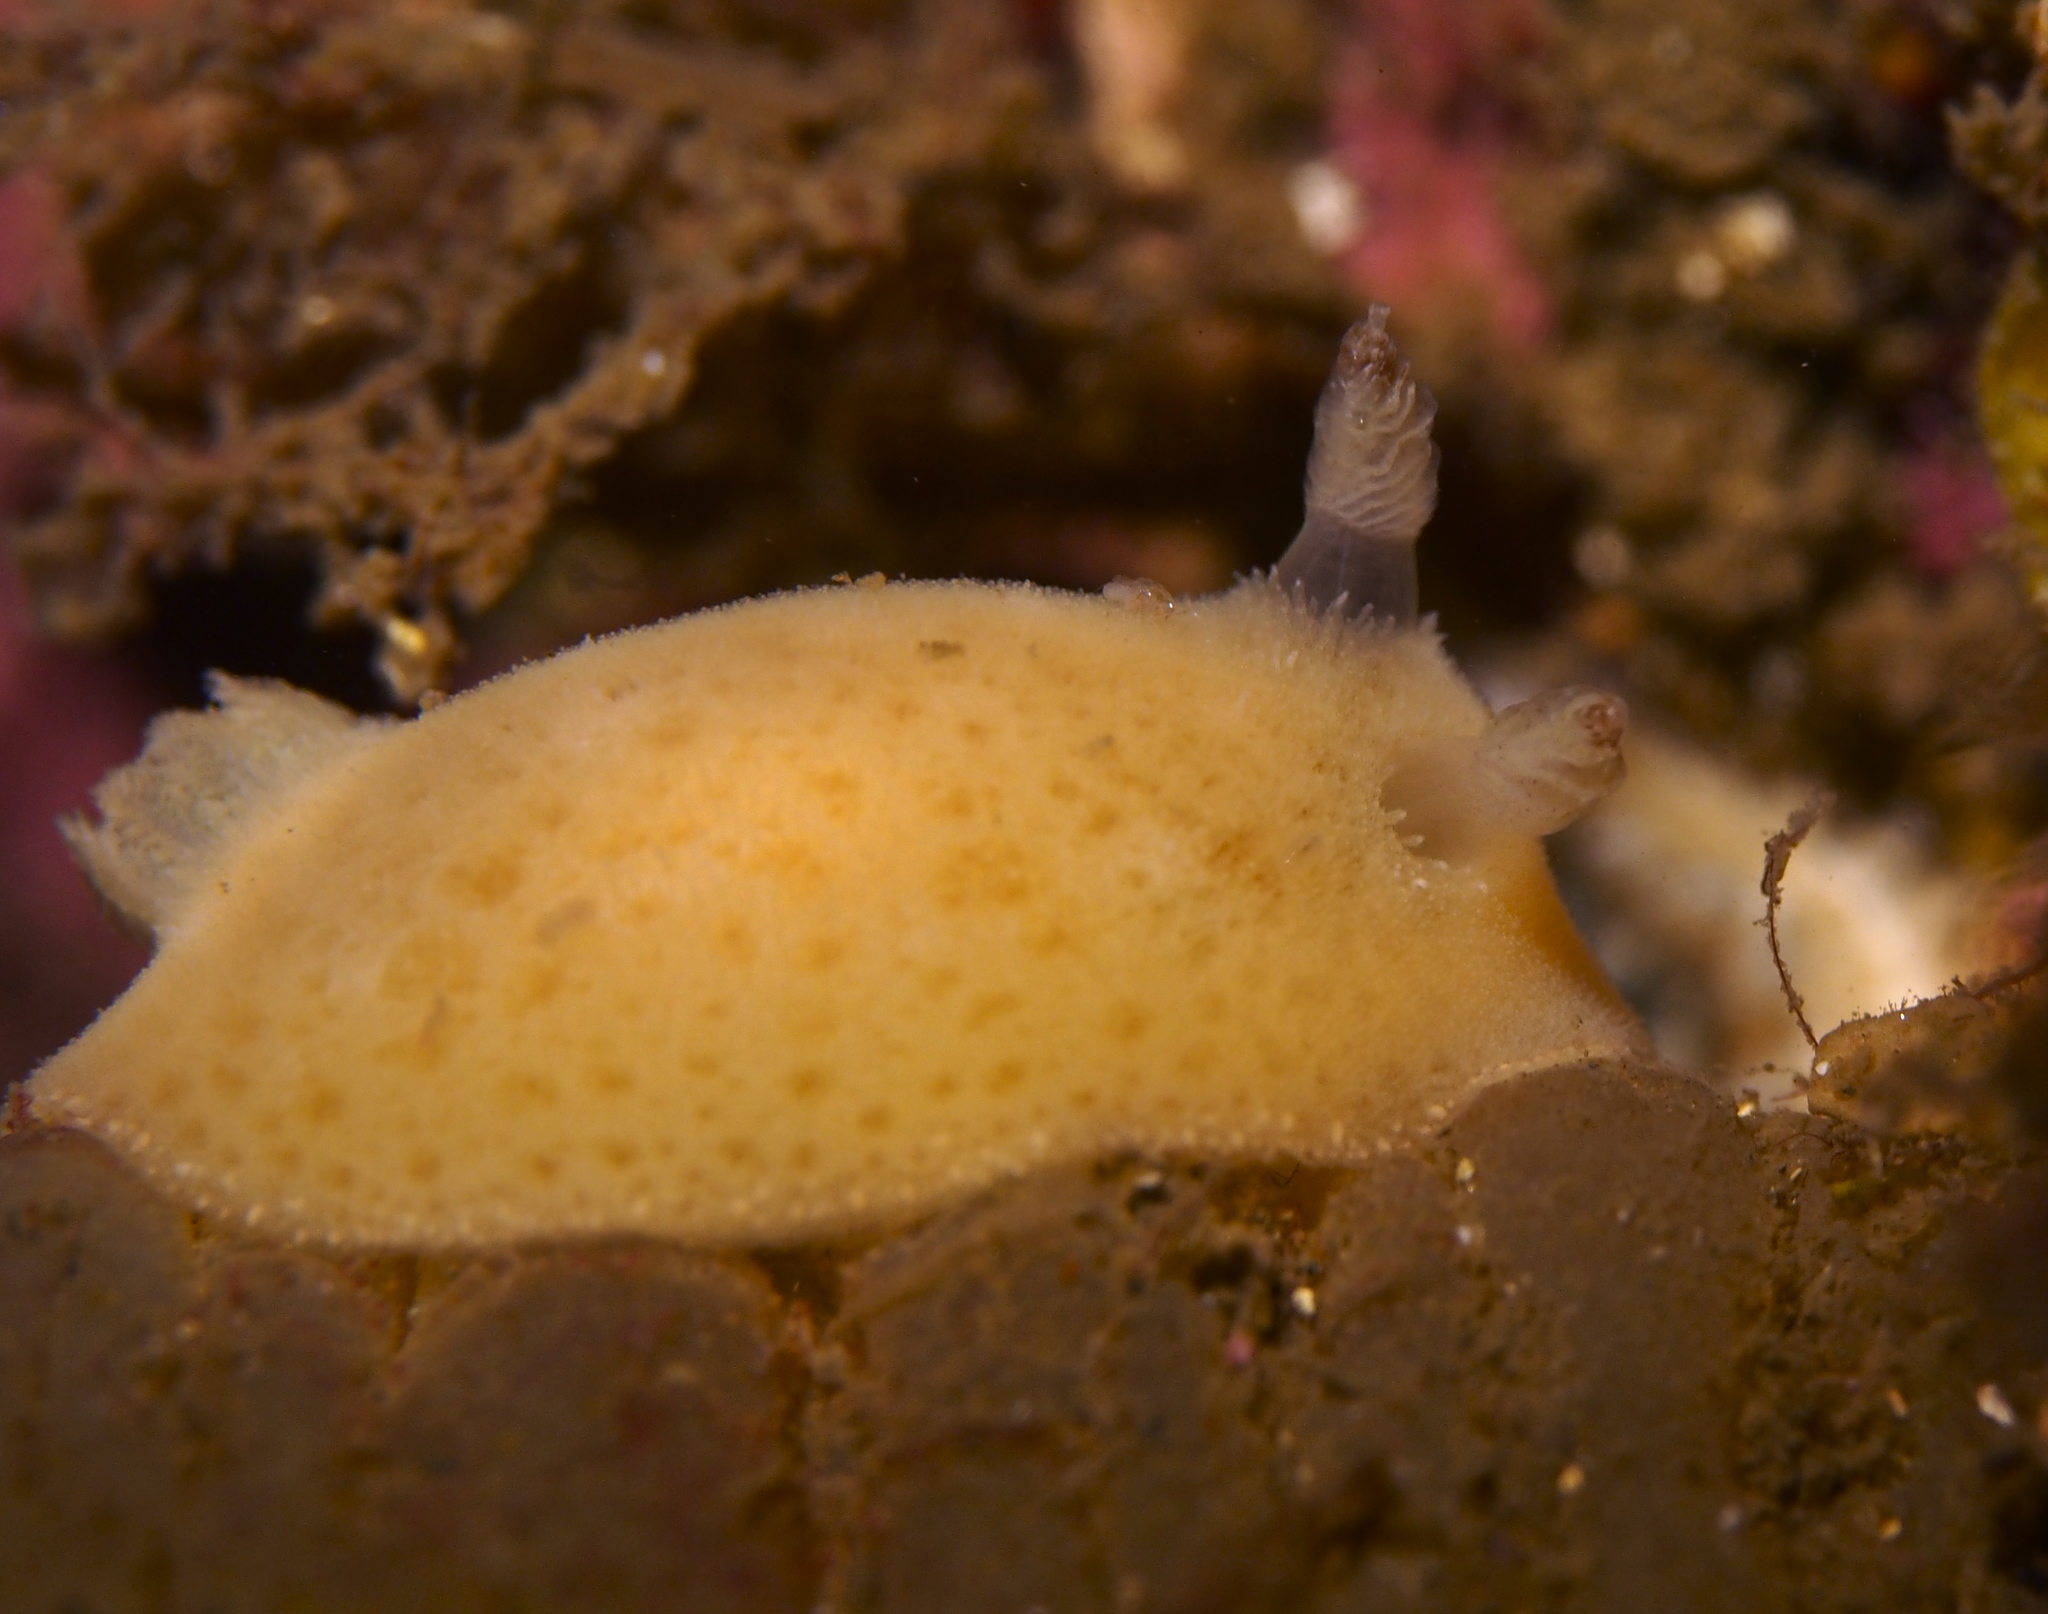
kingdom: Animalia
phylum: Mollusca
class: Gastropoda
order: Nudibranchia
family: Discodorididae
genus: Jorunna
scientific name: Jorunna tomentosa
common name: Grey sea slug
